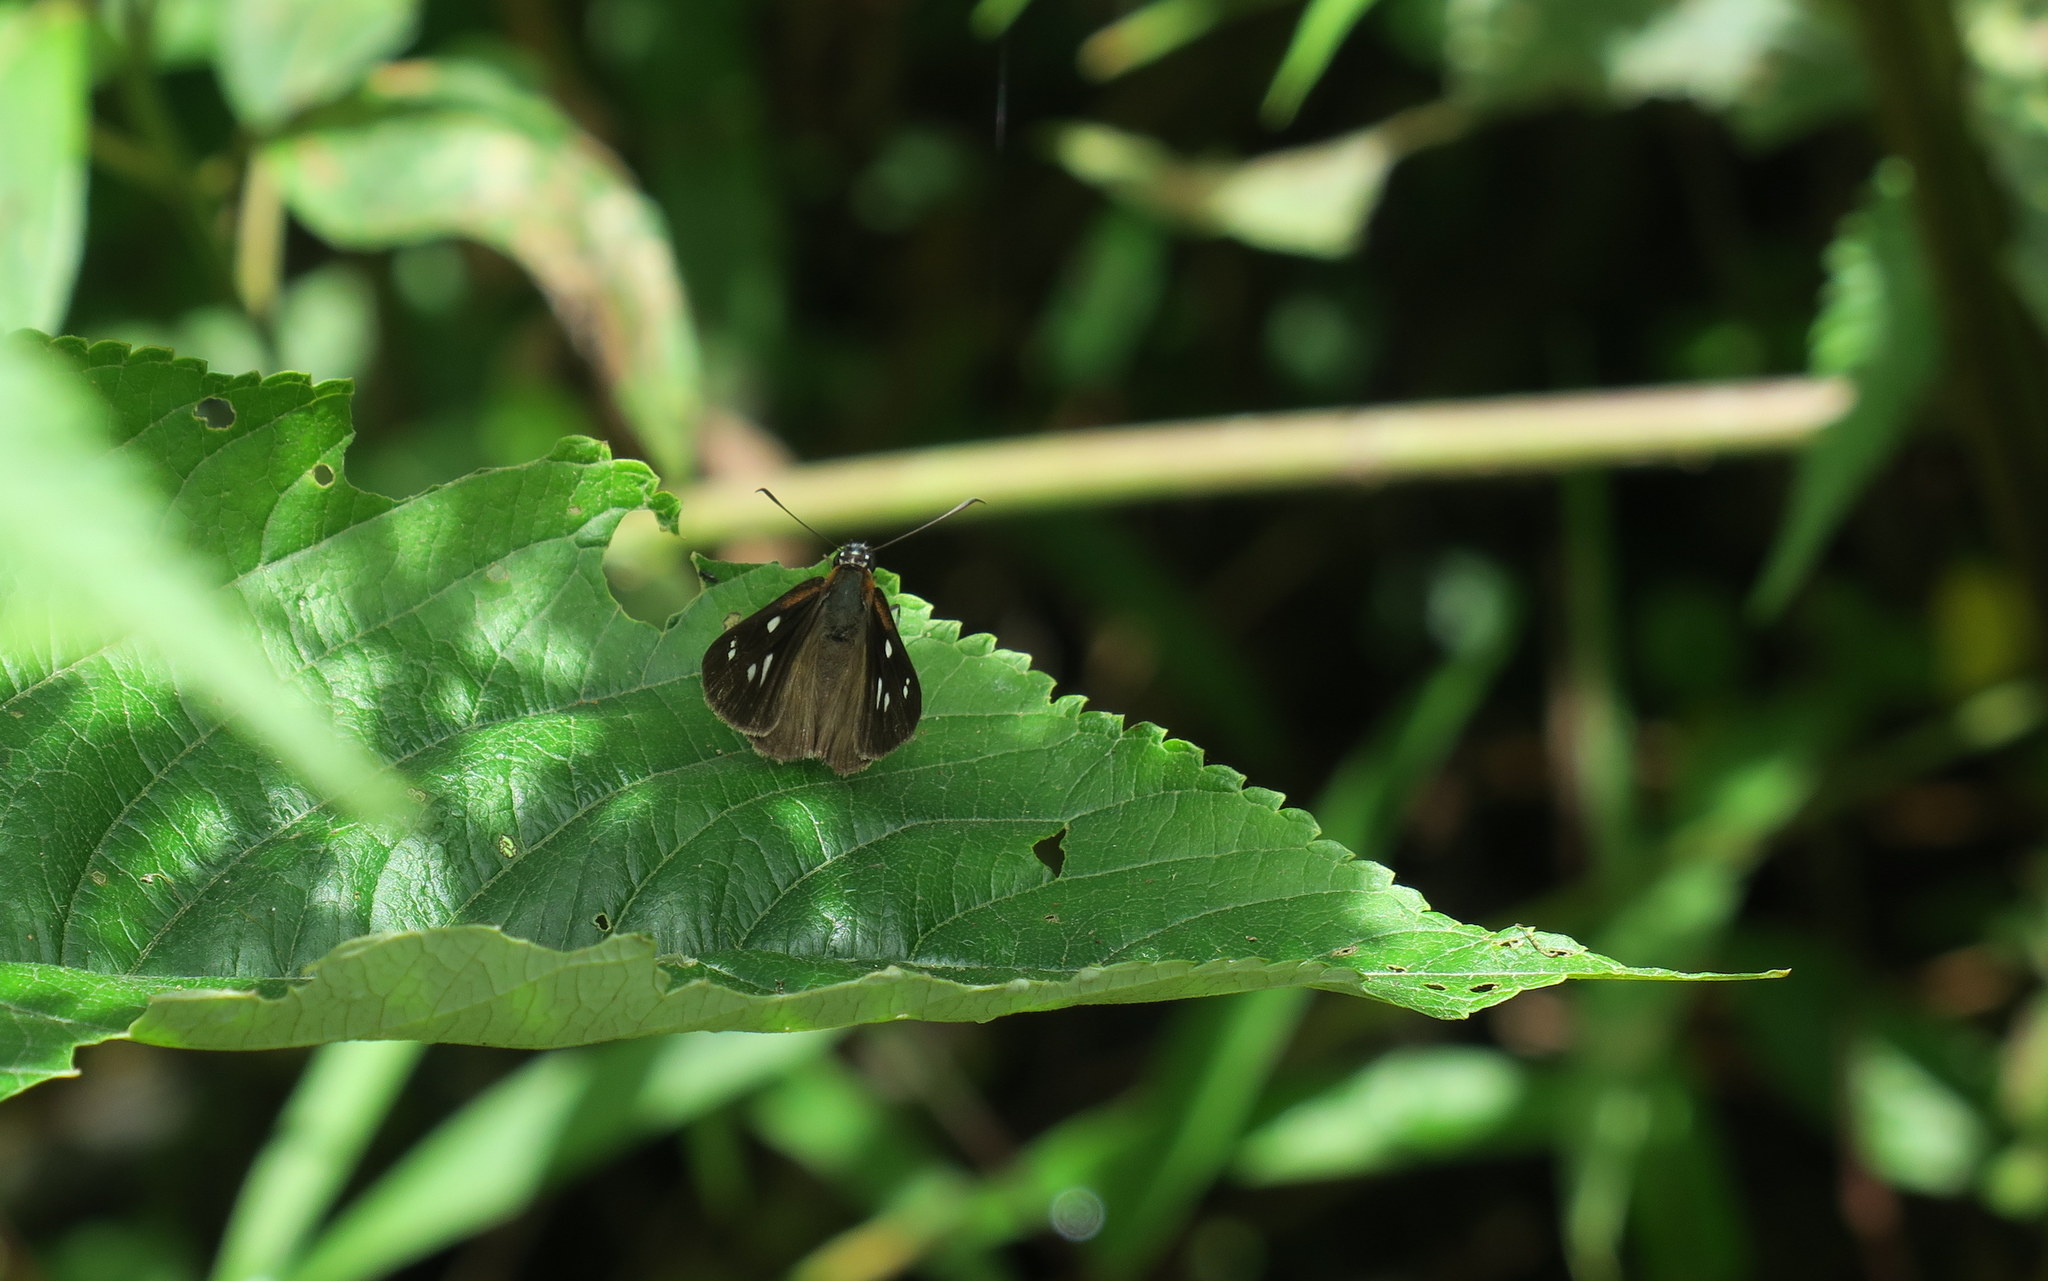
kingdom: Animalia
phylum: Arthropoda
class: Insecta
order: Lepidoptera
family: Hesperiidae
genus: Corra
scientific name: Corra
